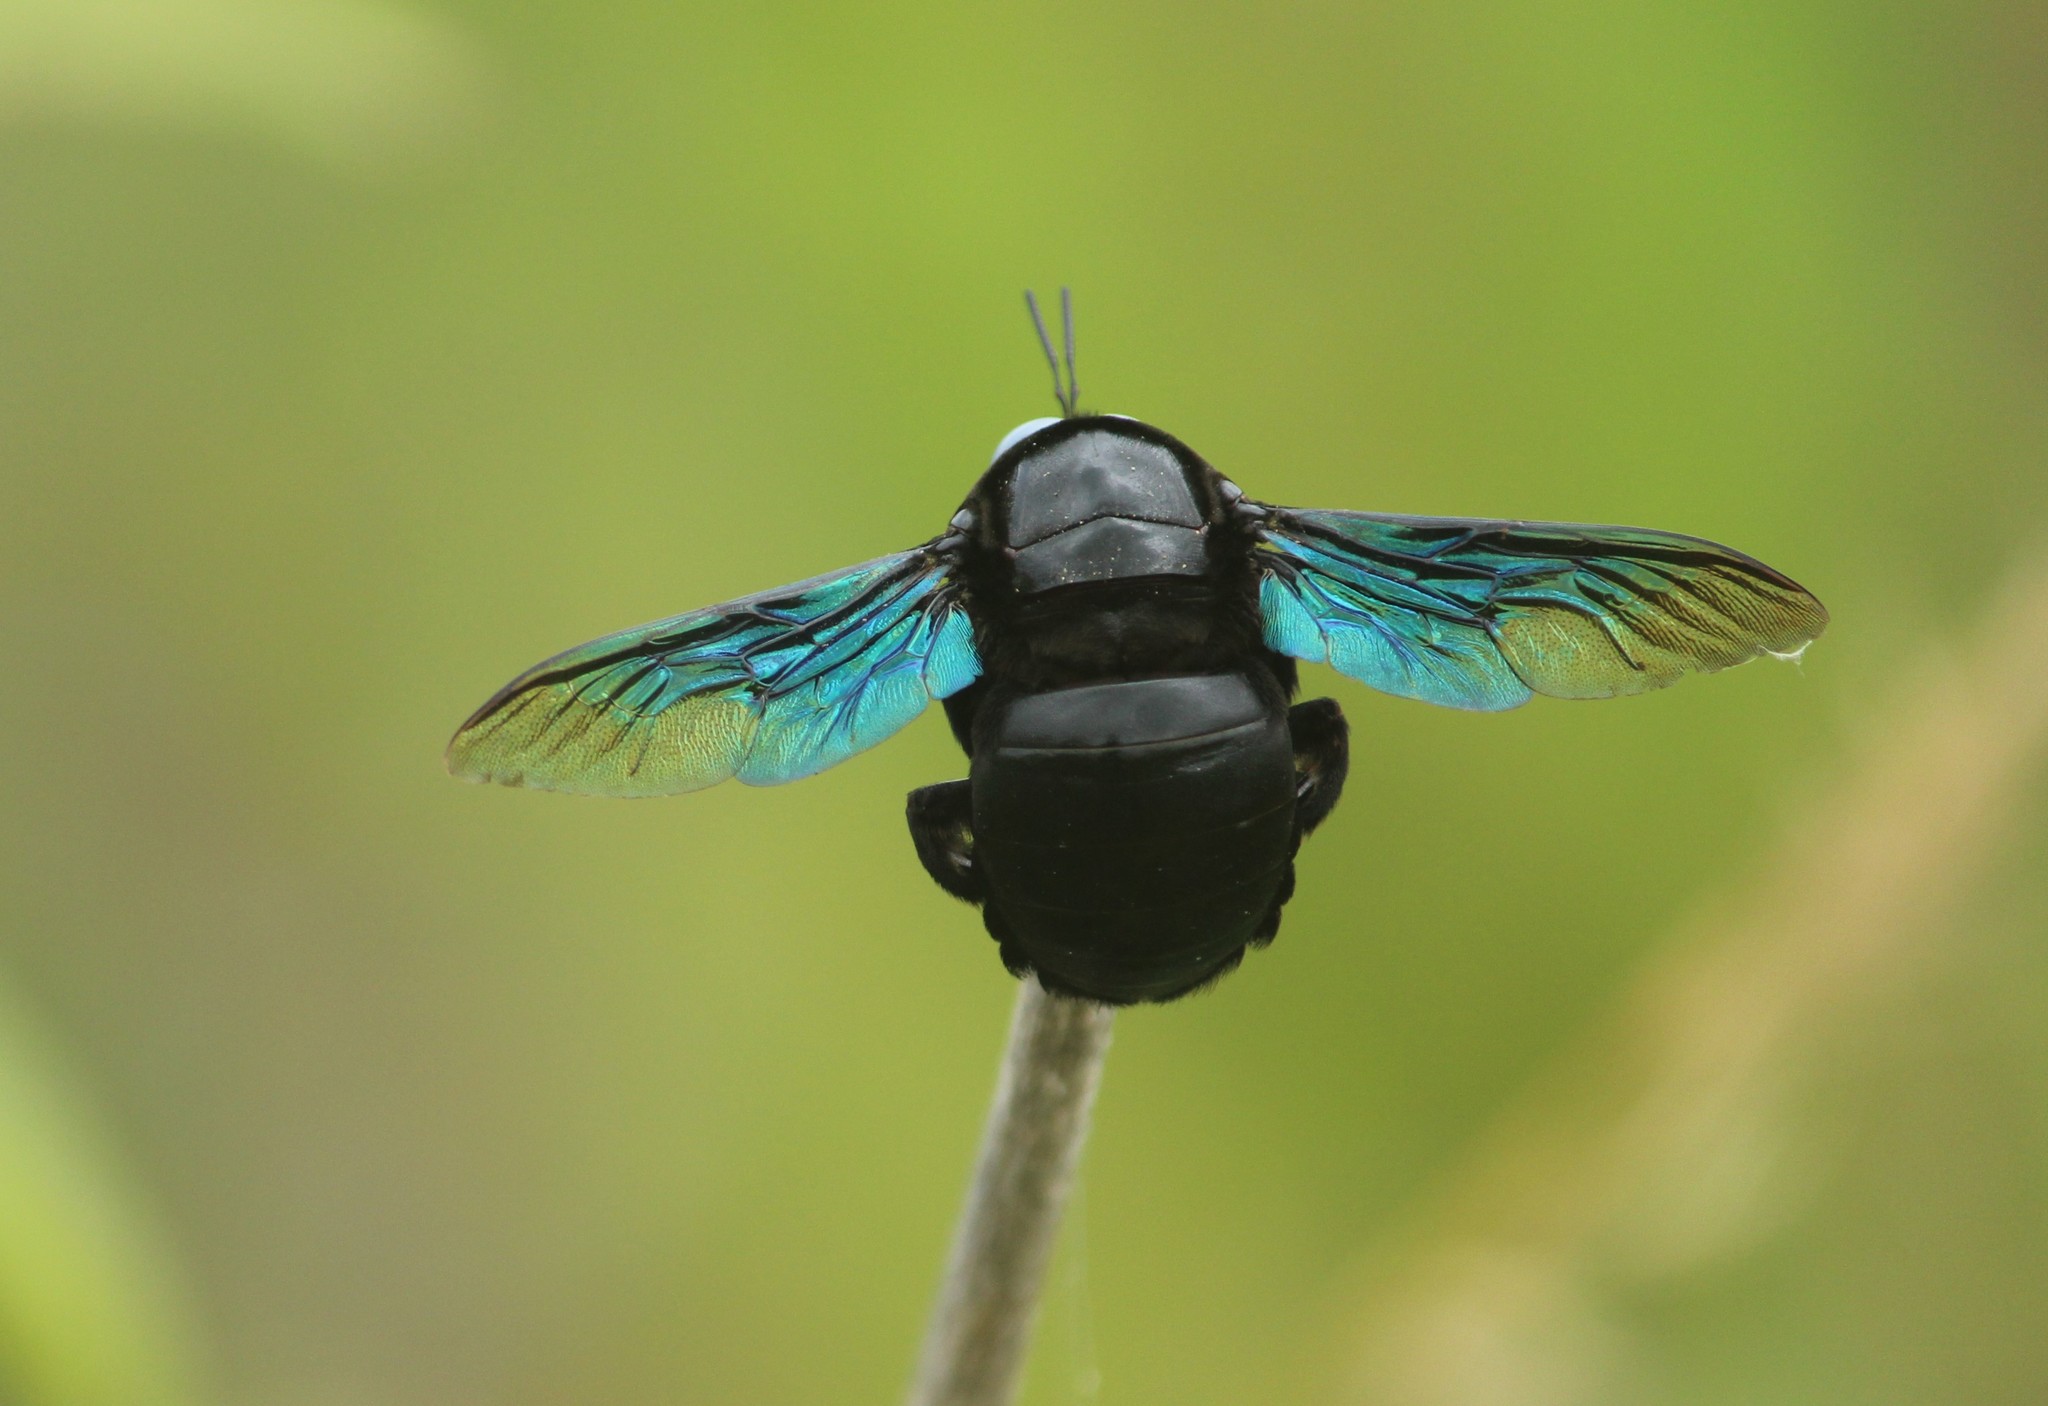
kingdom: Animalia
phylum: Arthropoda
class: Insecta
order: Hymenoptera
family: Apidae
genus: Xylocopa
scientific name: Xylocopa tenuiscapa
